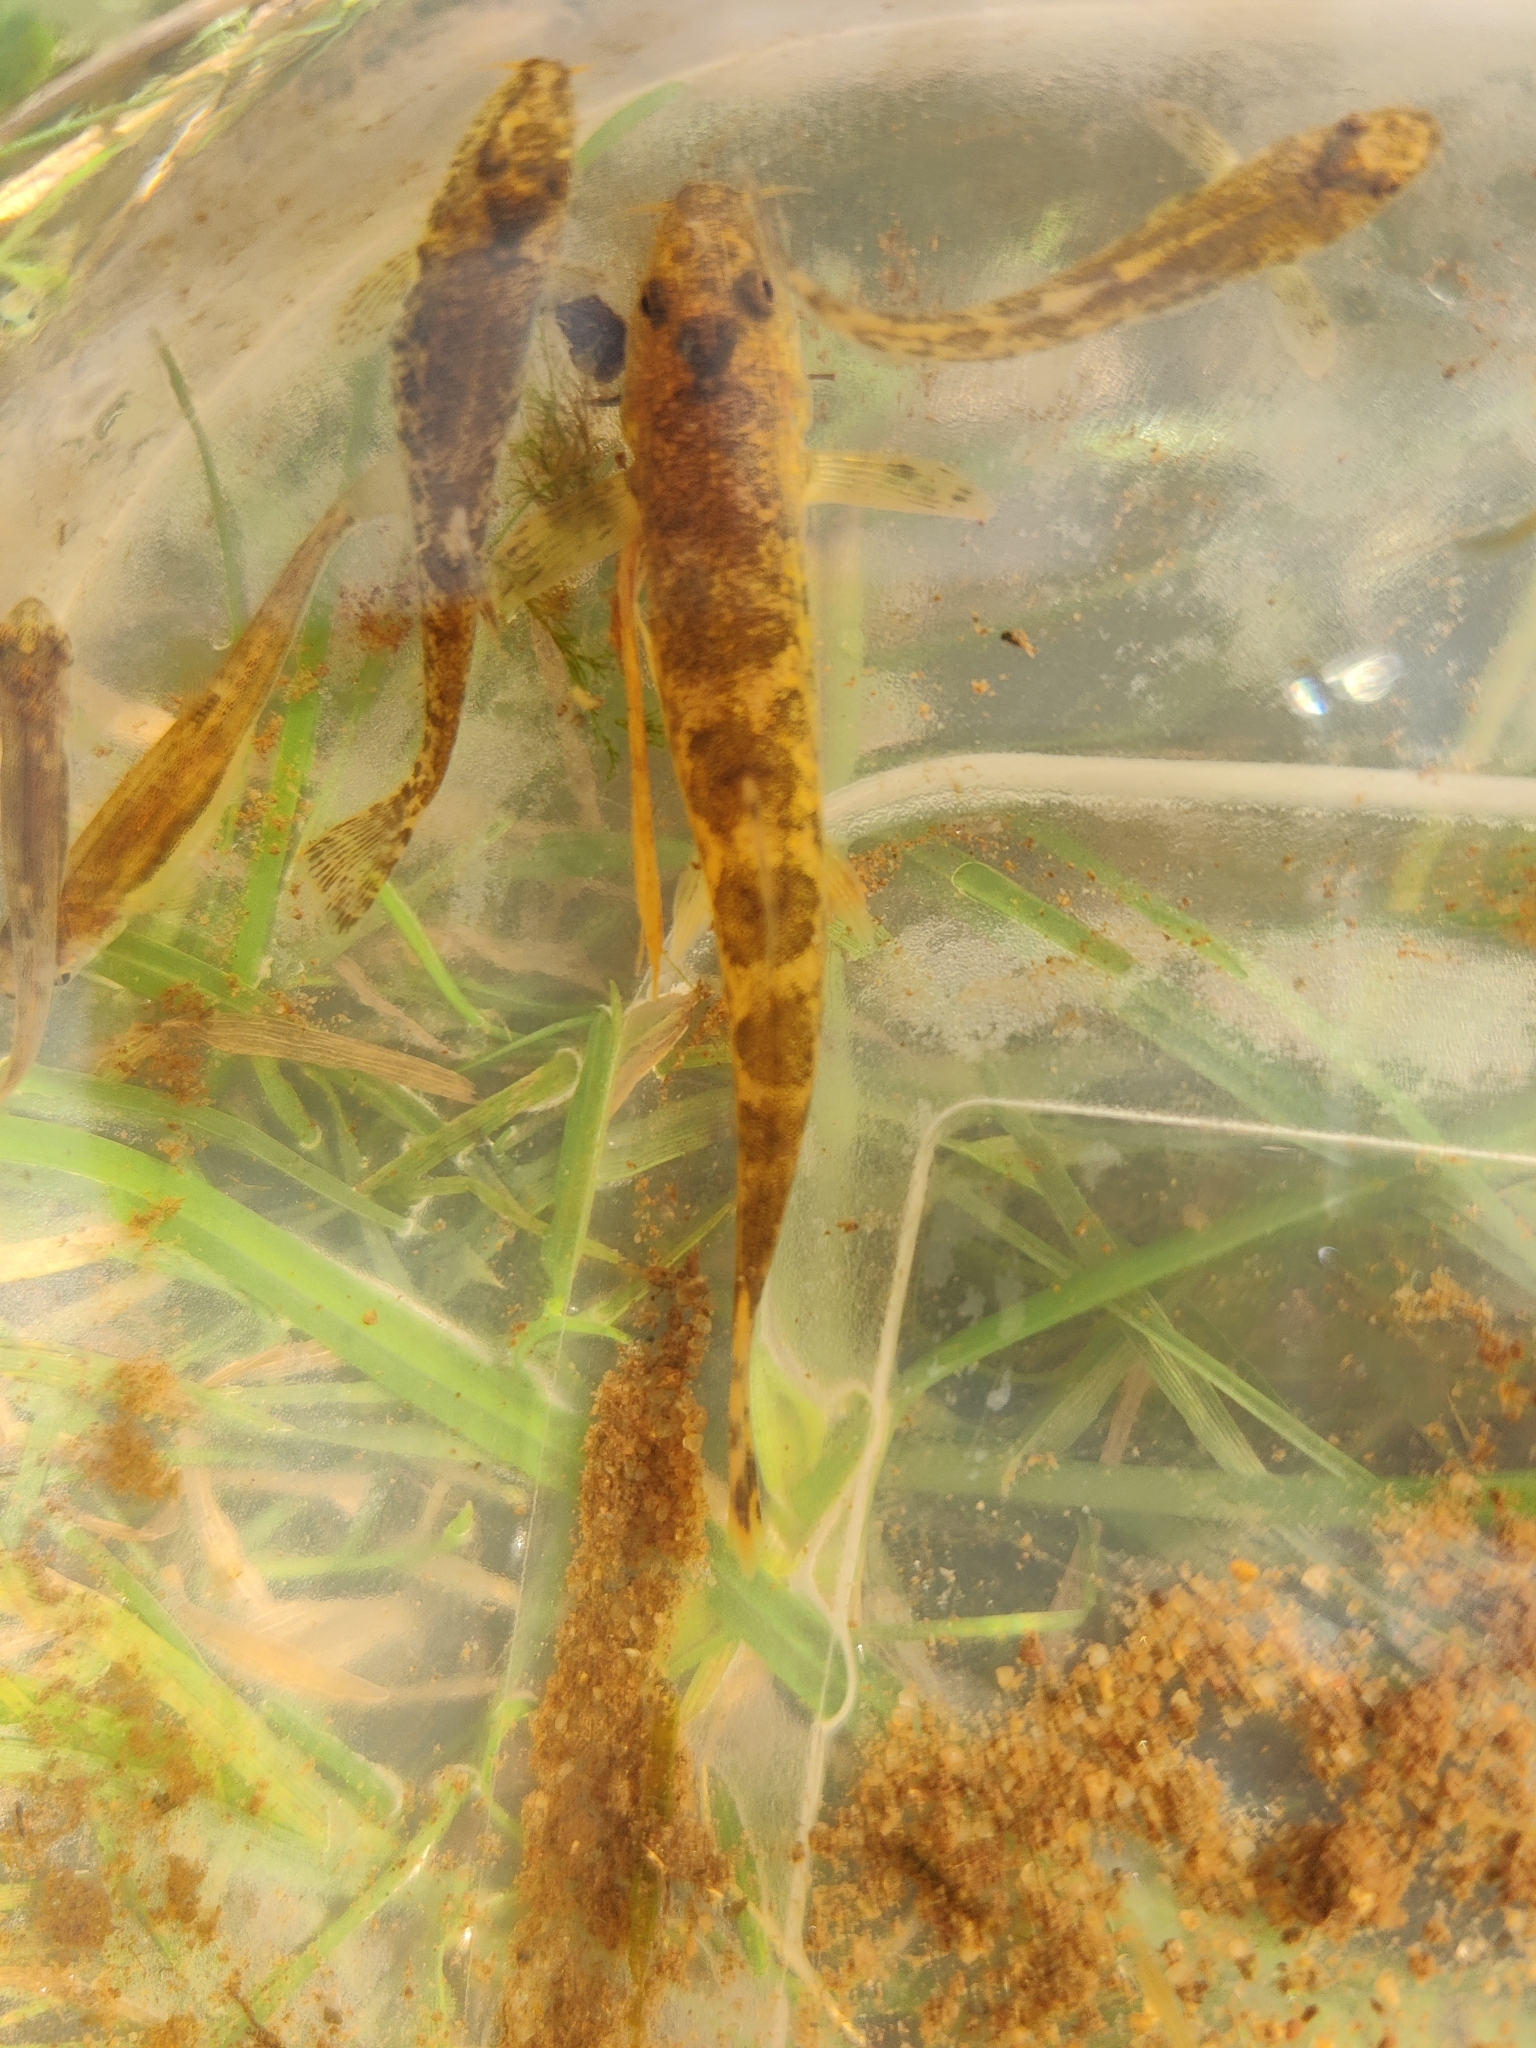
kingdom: Animalia
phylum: Chordata
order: Cypriniformes
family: Nemacheilidae
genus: Barbatula
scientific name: Barbatula barbatula
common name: Stone loach
